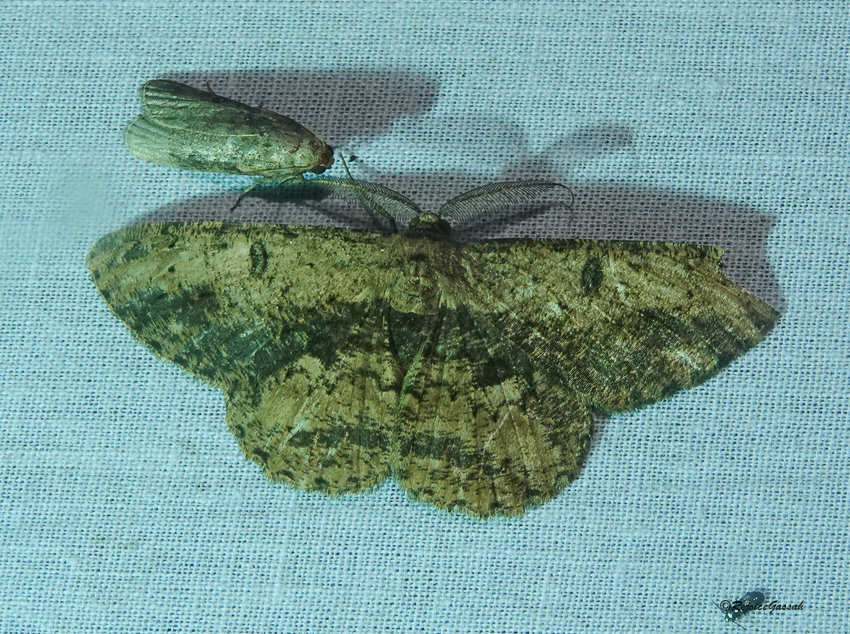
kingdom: Animalia
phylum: Arthropoda
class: Insecta
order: Lepidoptera
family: Geometridae
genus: Hypomecis
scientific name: Hypomecis separata
